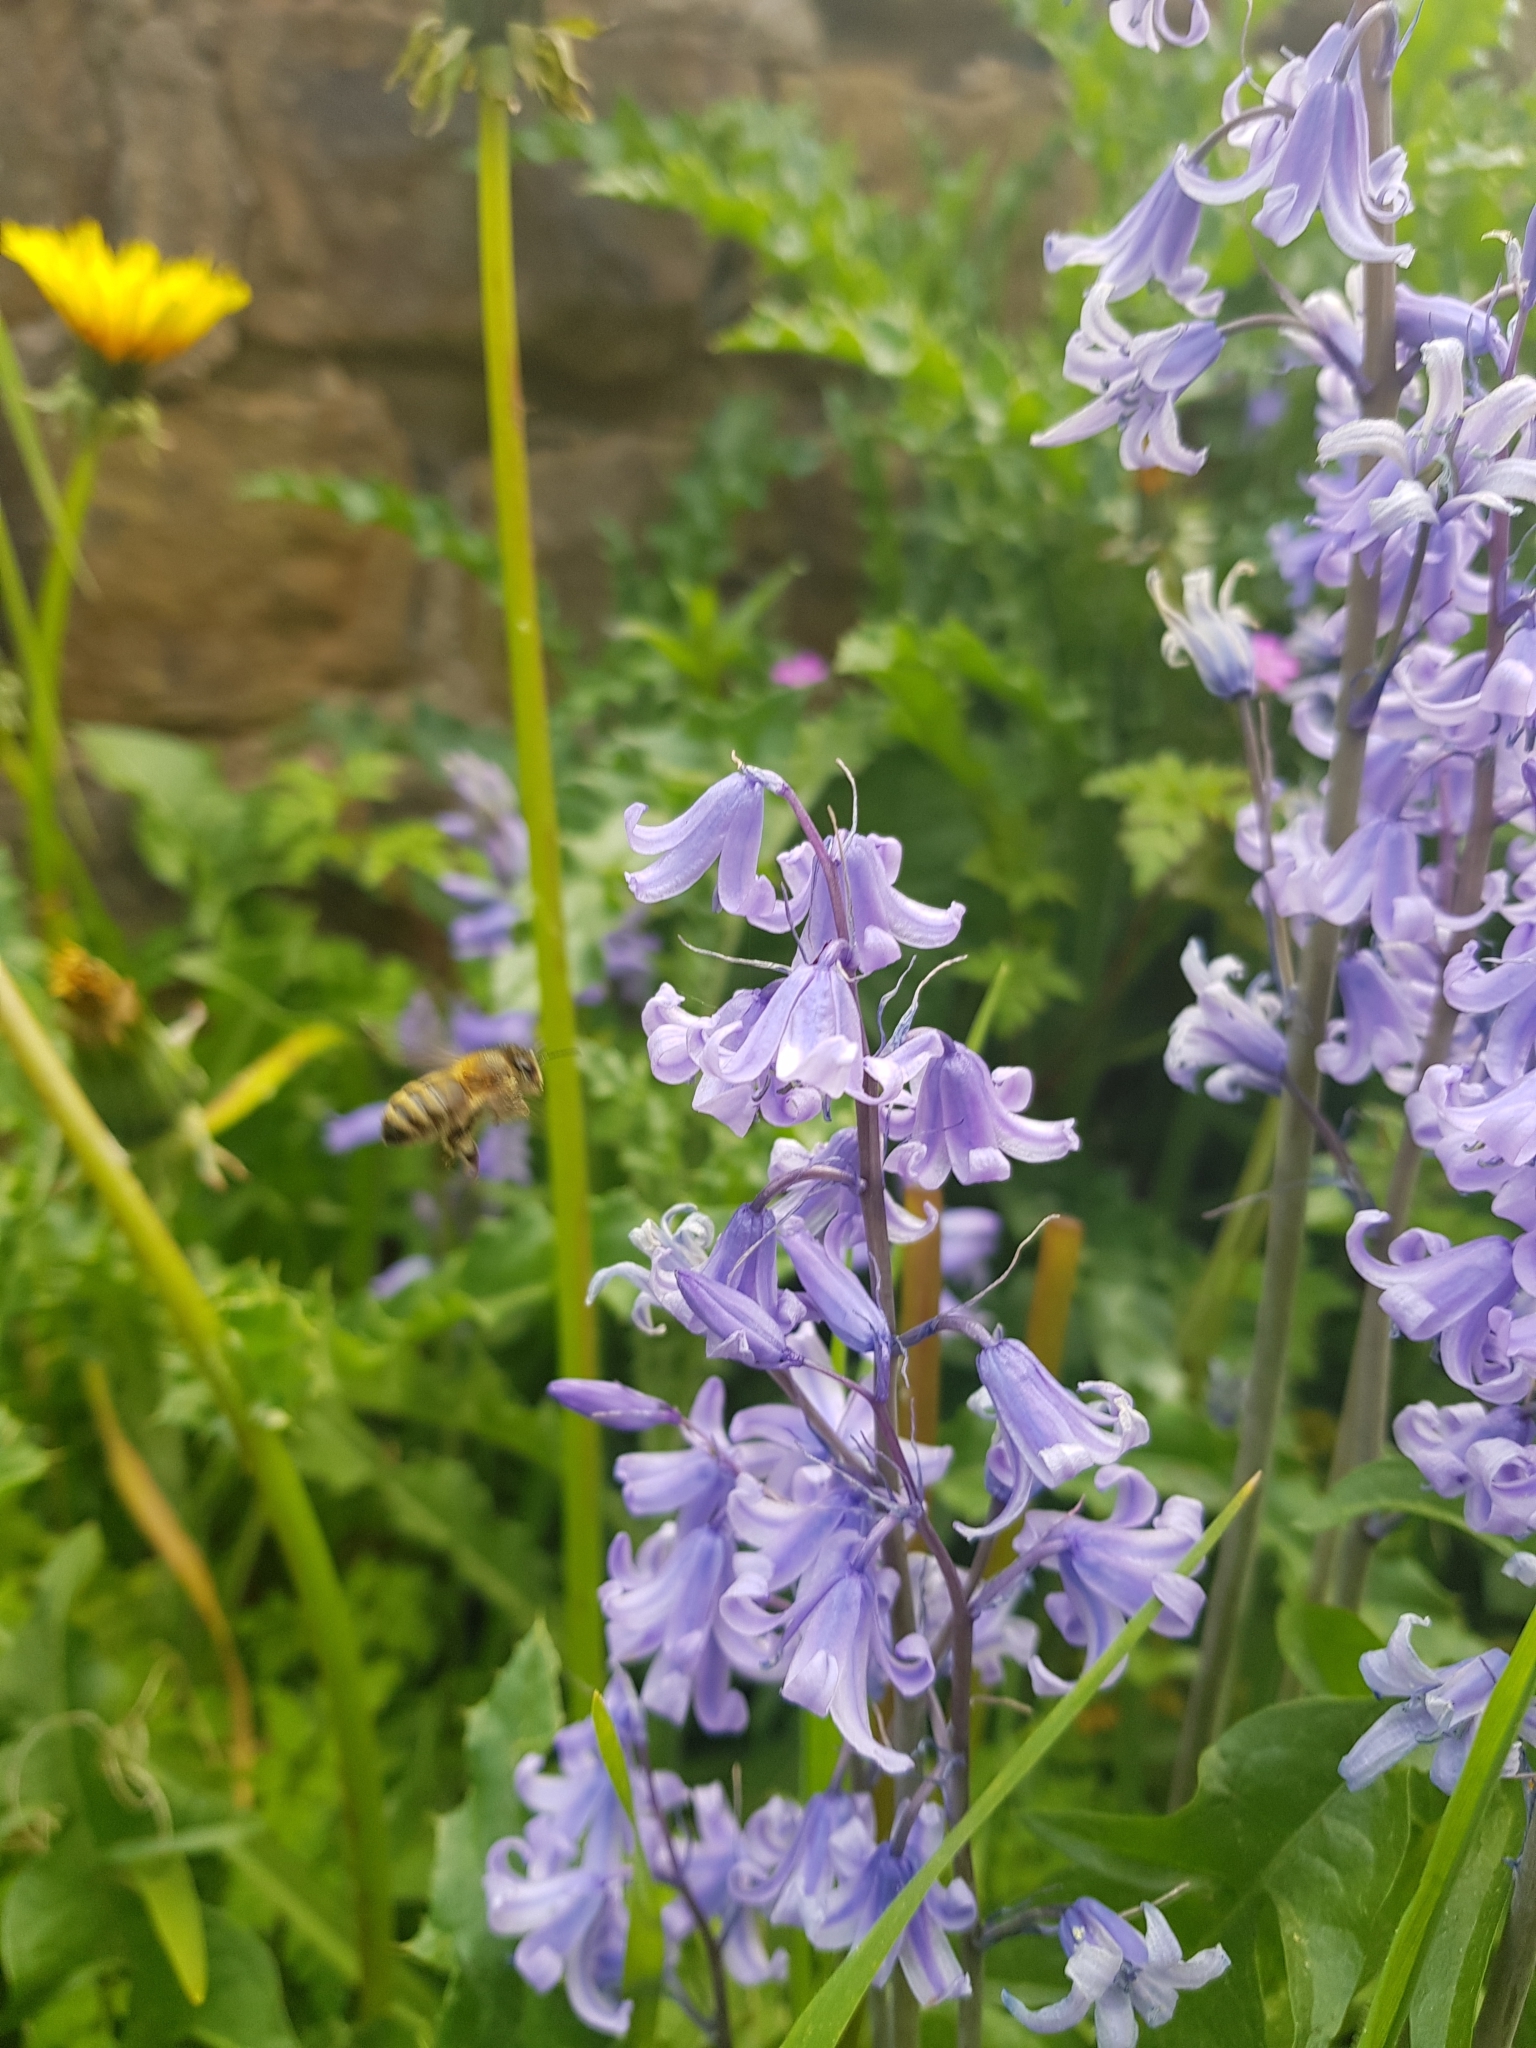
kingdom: Animalia
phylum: Arthropoda
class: Insecta
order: Hymenoptera
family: Apidae
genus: Apis
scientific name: Apis mellifera
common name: Honey bee
